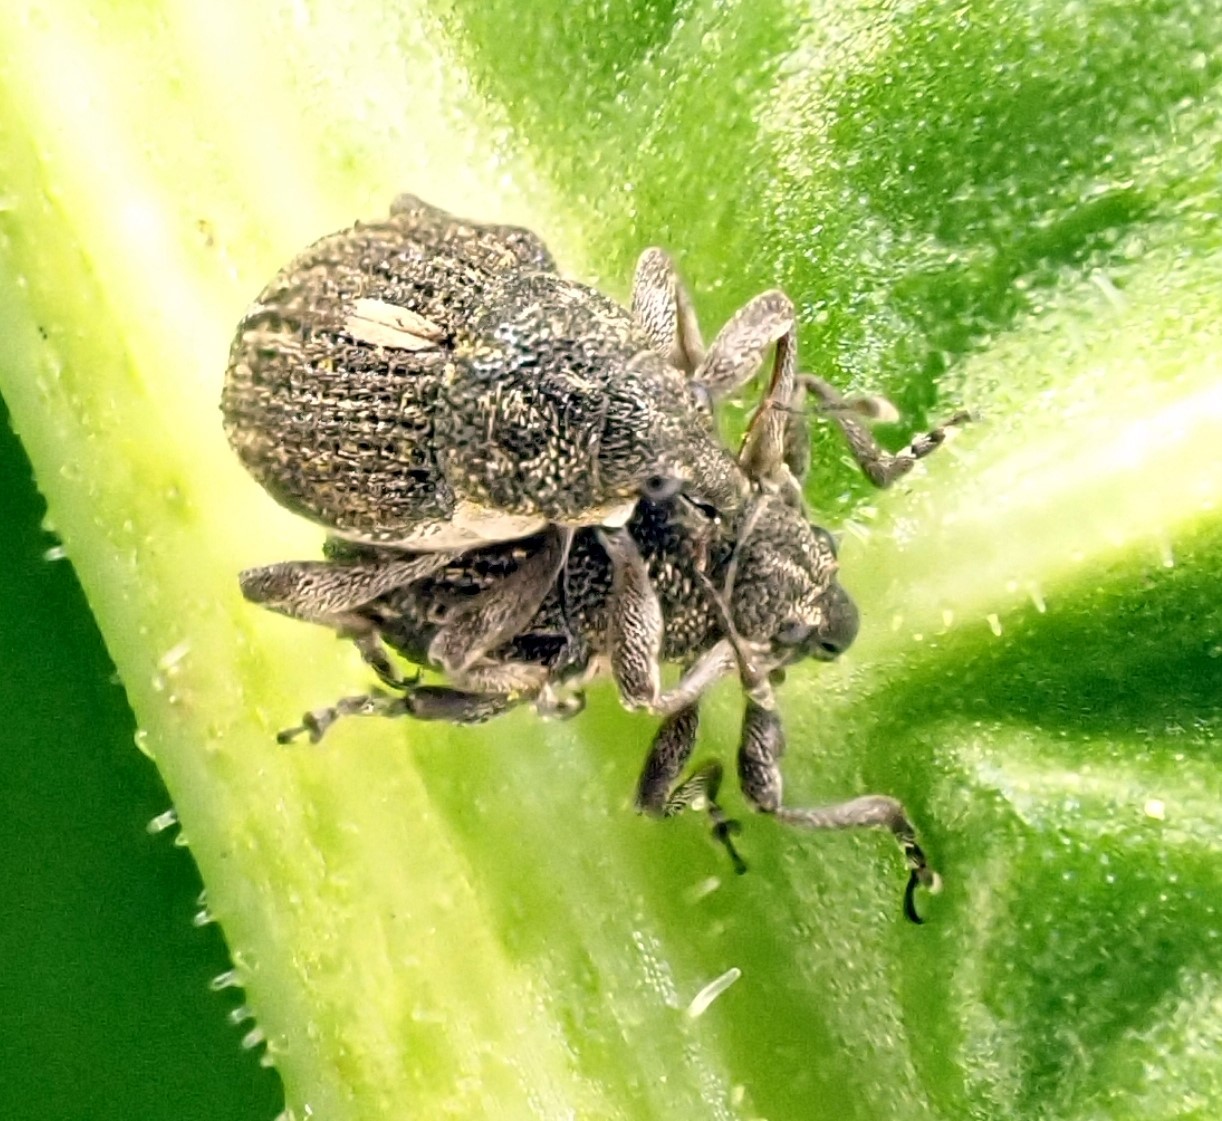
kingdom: Animalia
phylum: Arthropoda
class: Insecta
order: Coleoptera
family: Curculionidae
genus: Rhinoncus
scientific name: Rhinoncus leucostigma
